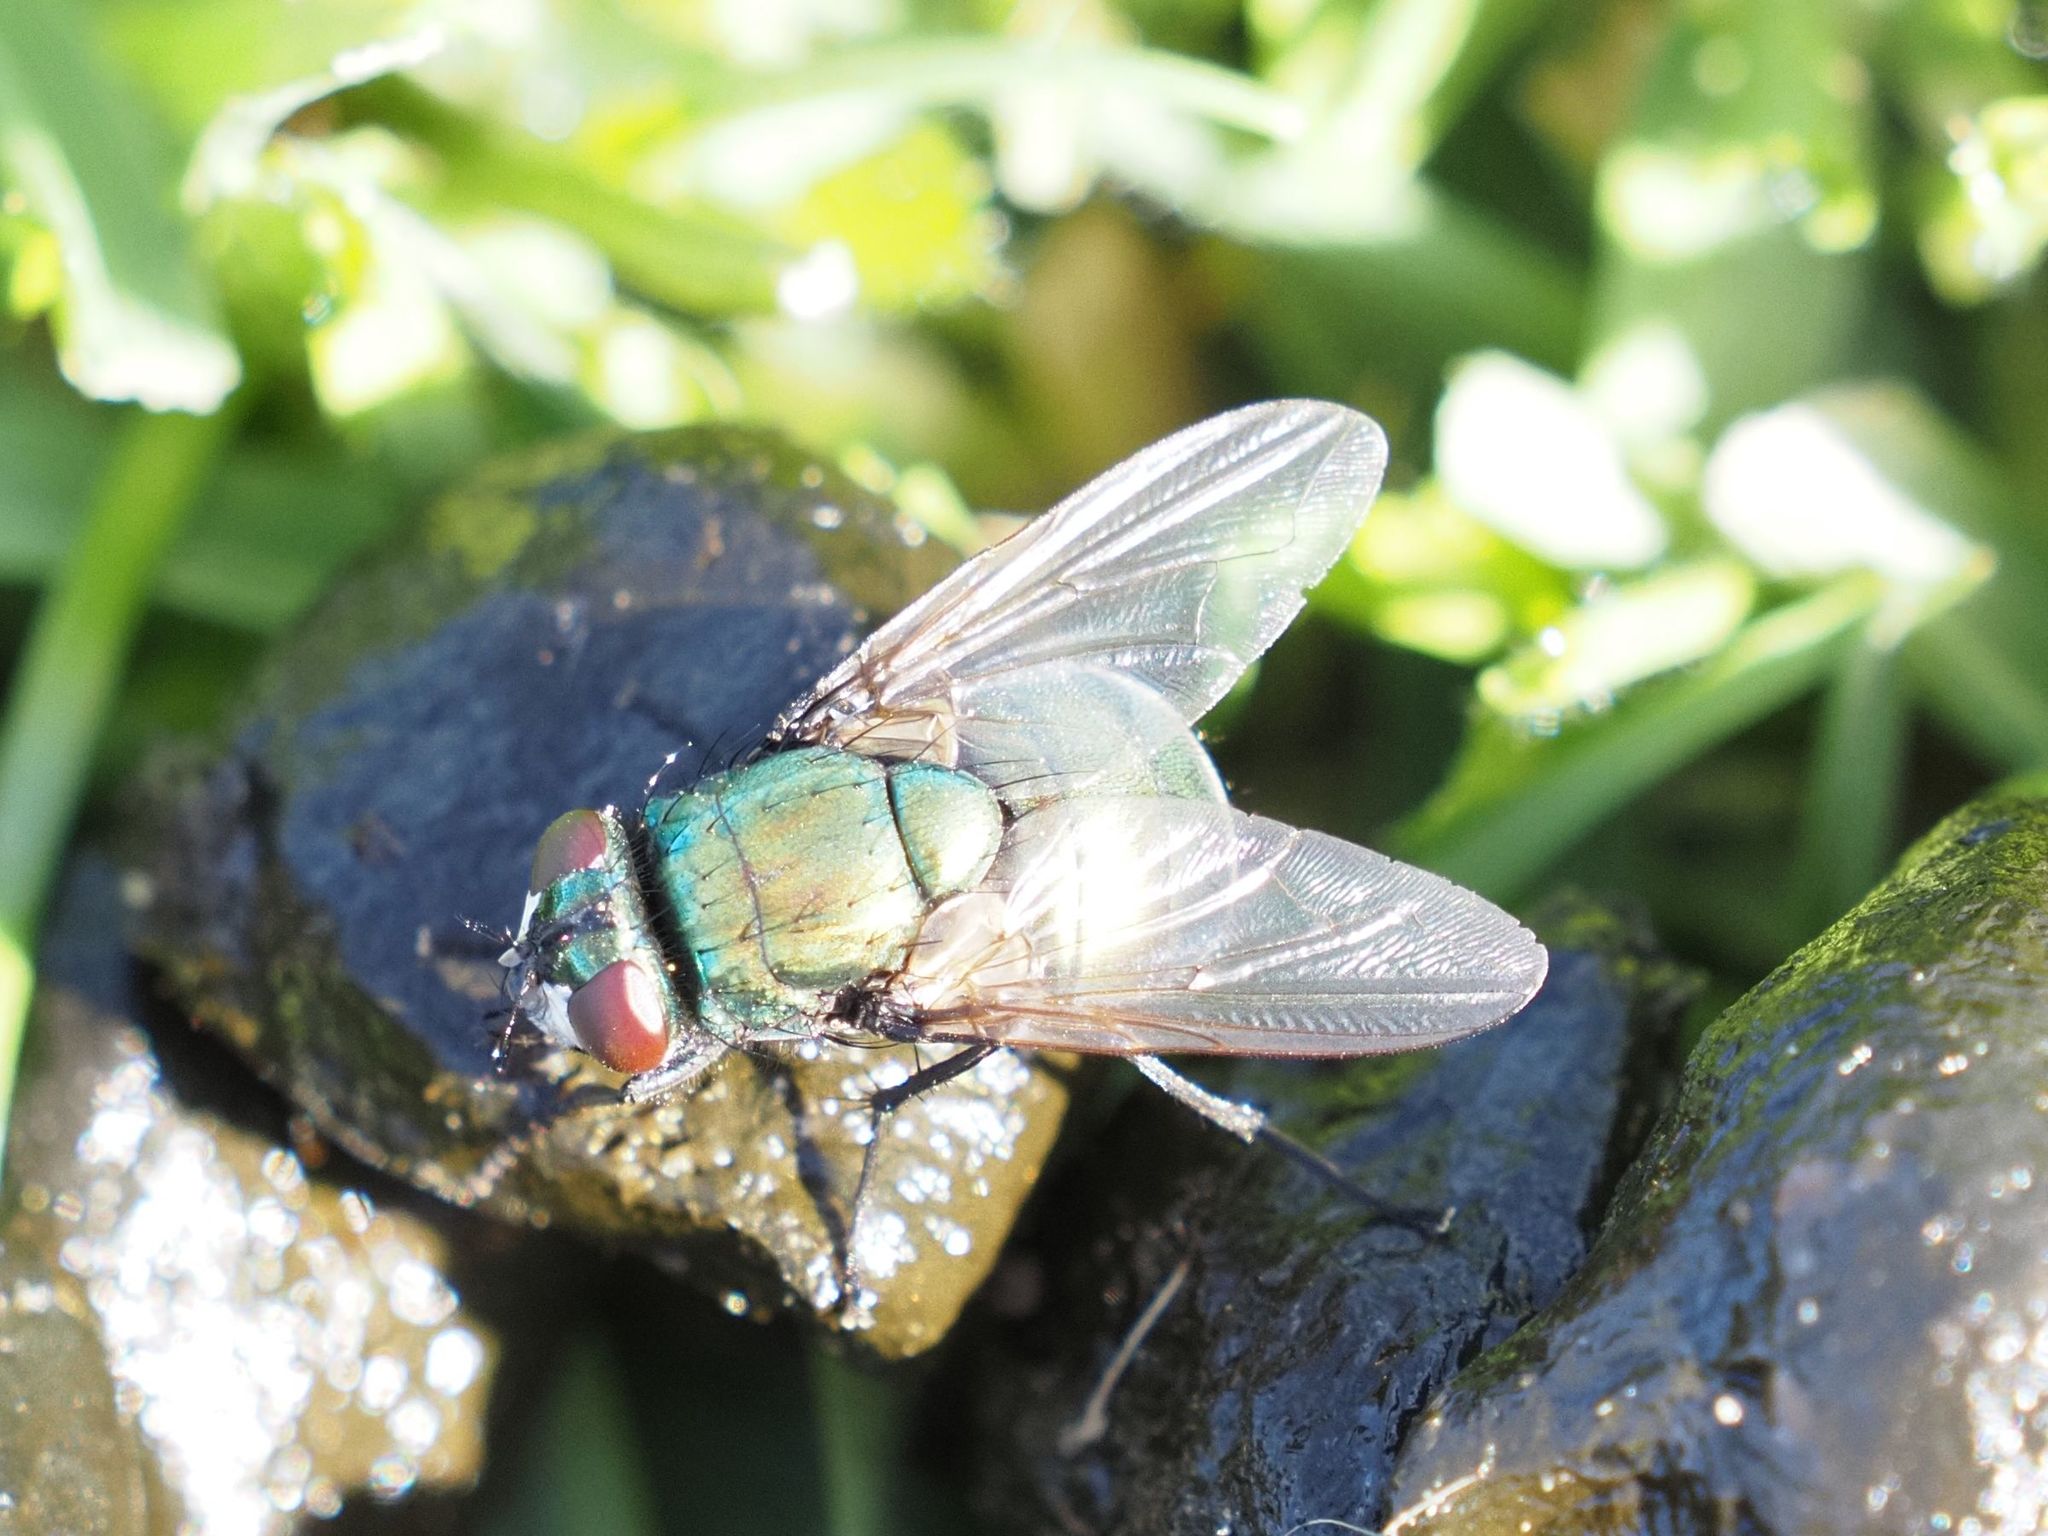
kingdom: Animalia
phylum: Arthropoda
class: Insecta
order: Diptera
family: Muscidae
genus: Neomyia
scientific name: Neomyia cornicina
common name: House fly
